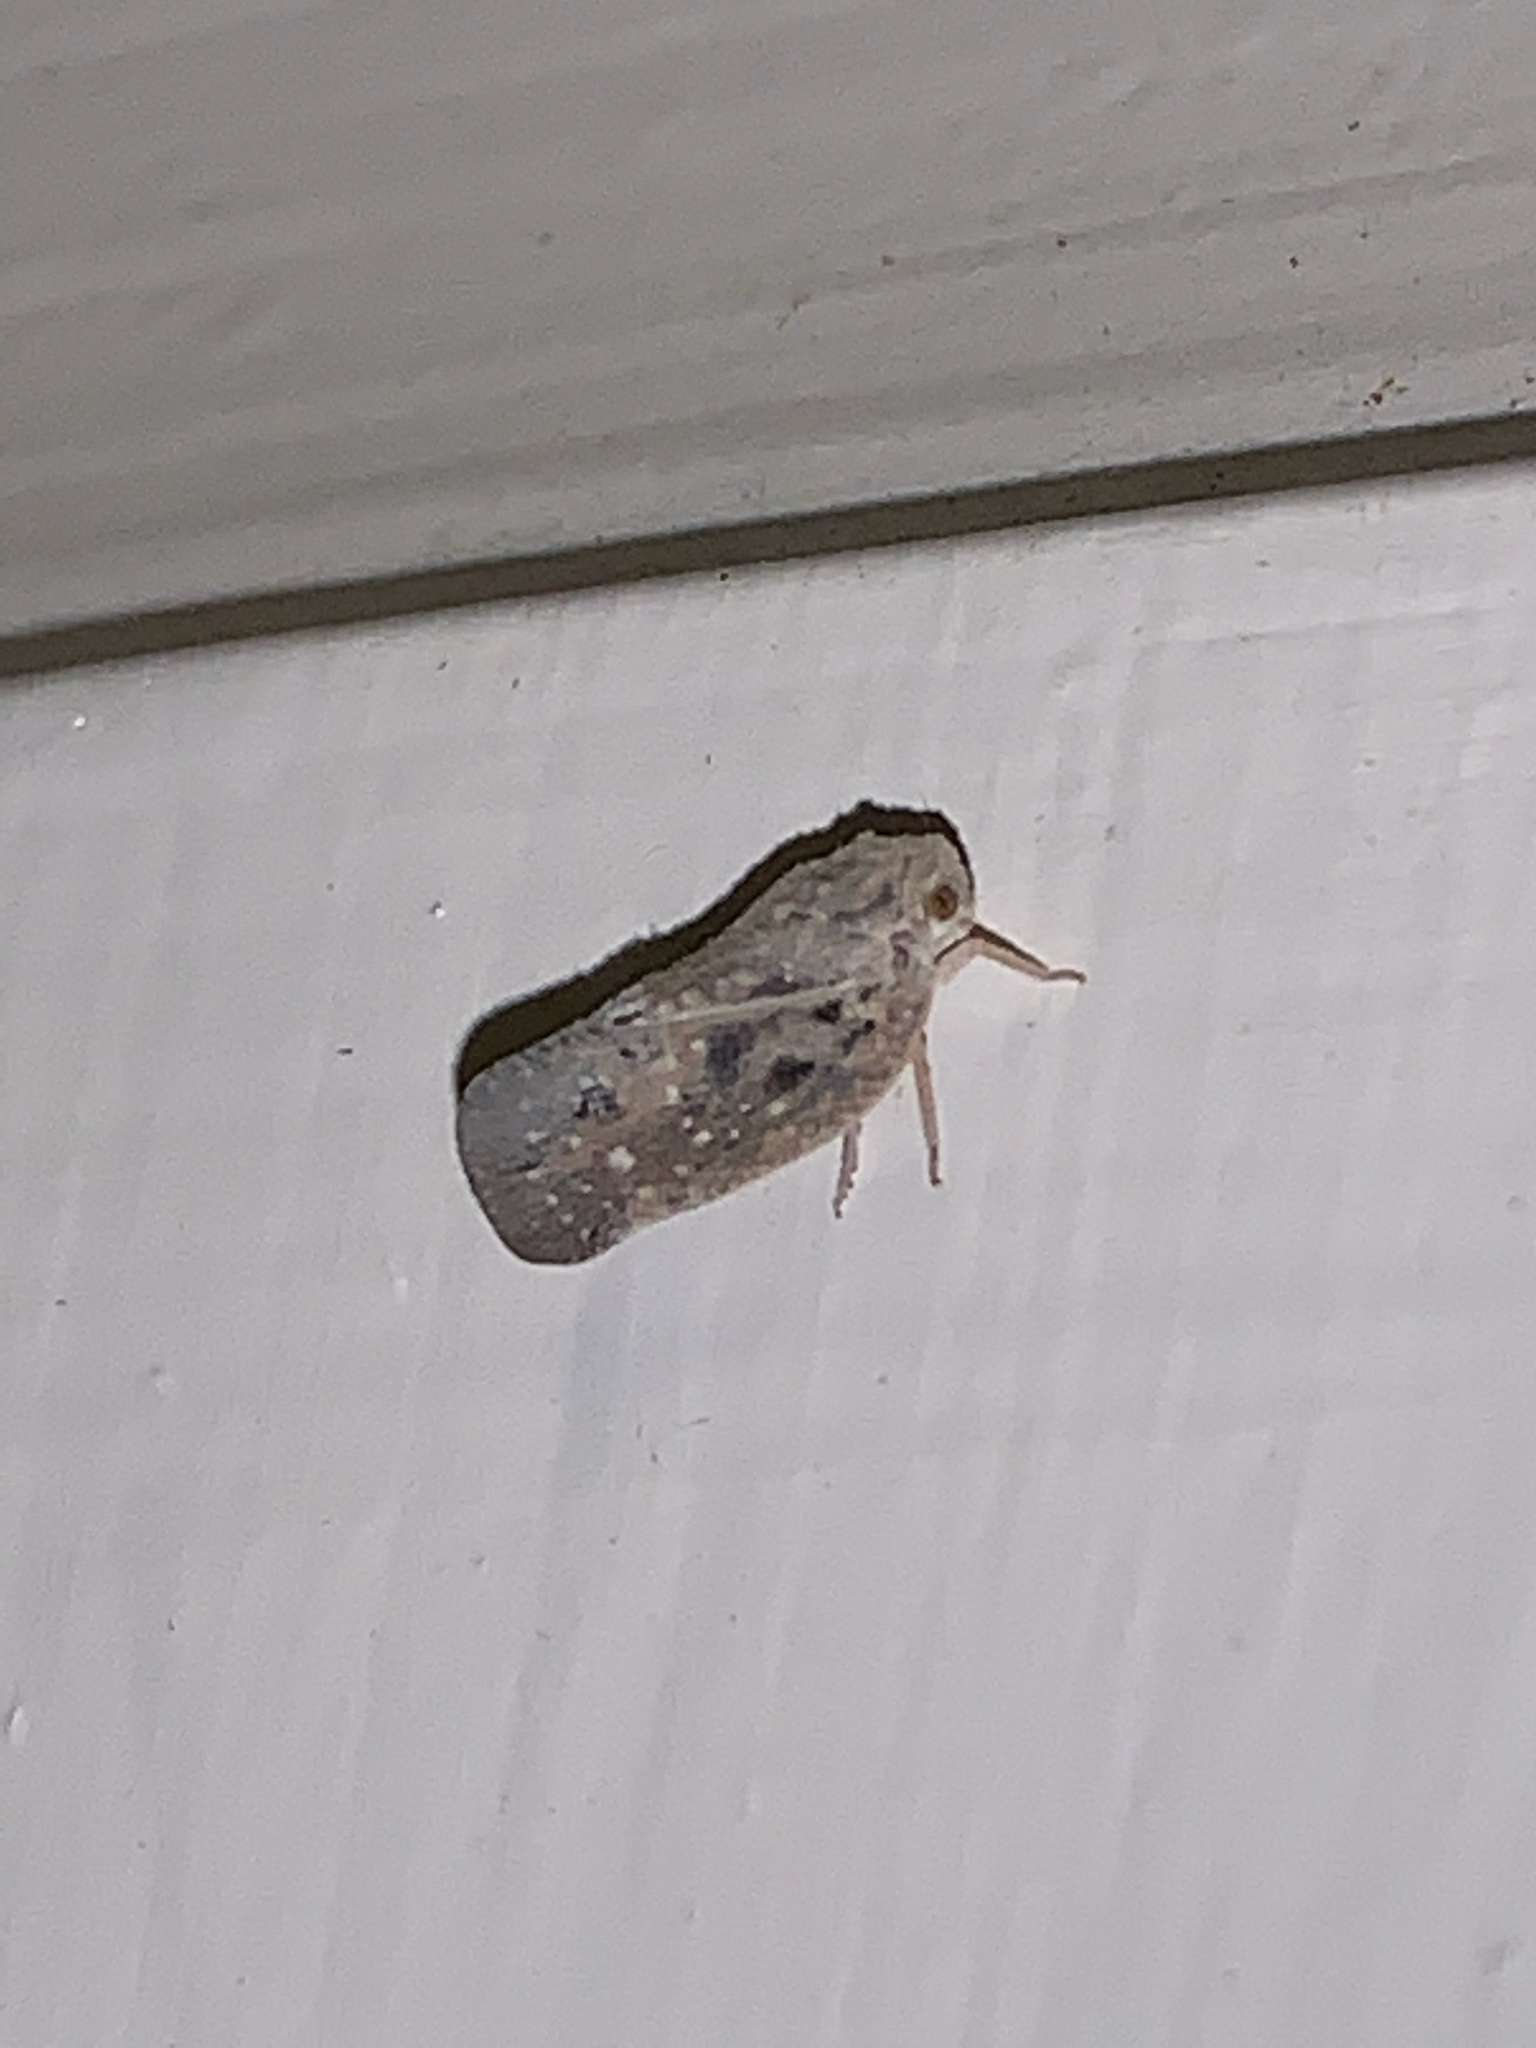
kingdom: Animalia
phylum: Arthropoda
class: Insecta
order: Hemiptera
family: Flatidae
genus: Metcalfa
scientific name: Metcalfa pruinosa
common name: Citrus flatid planthopper
